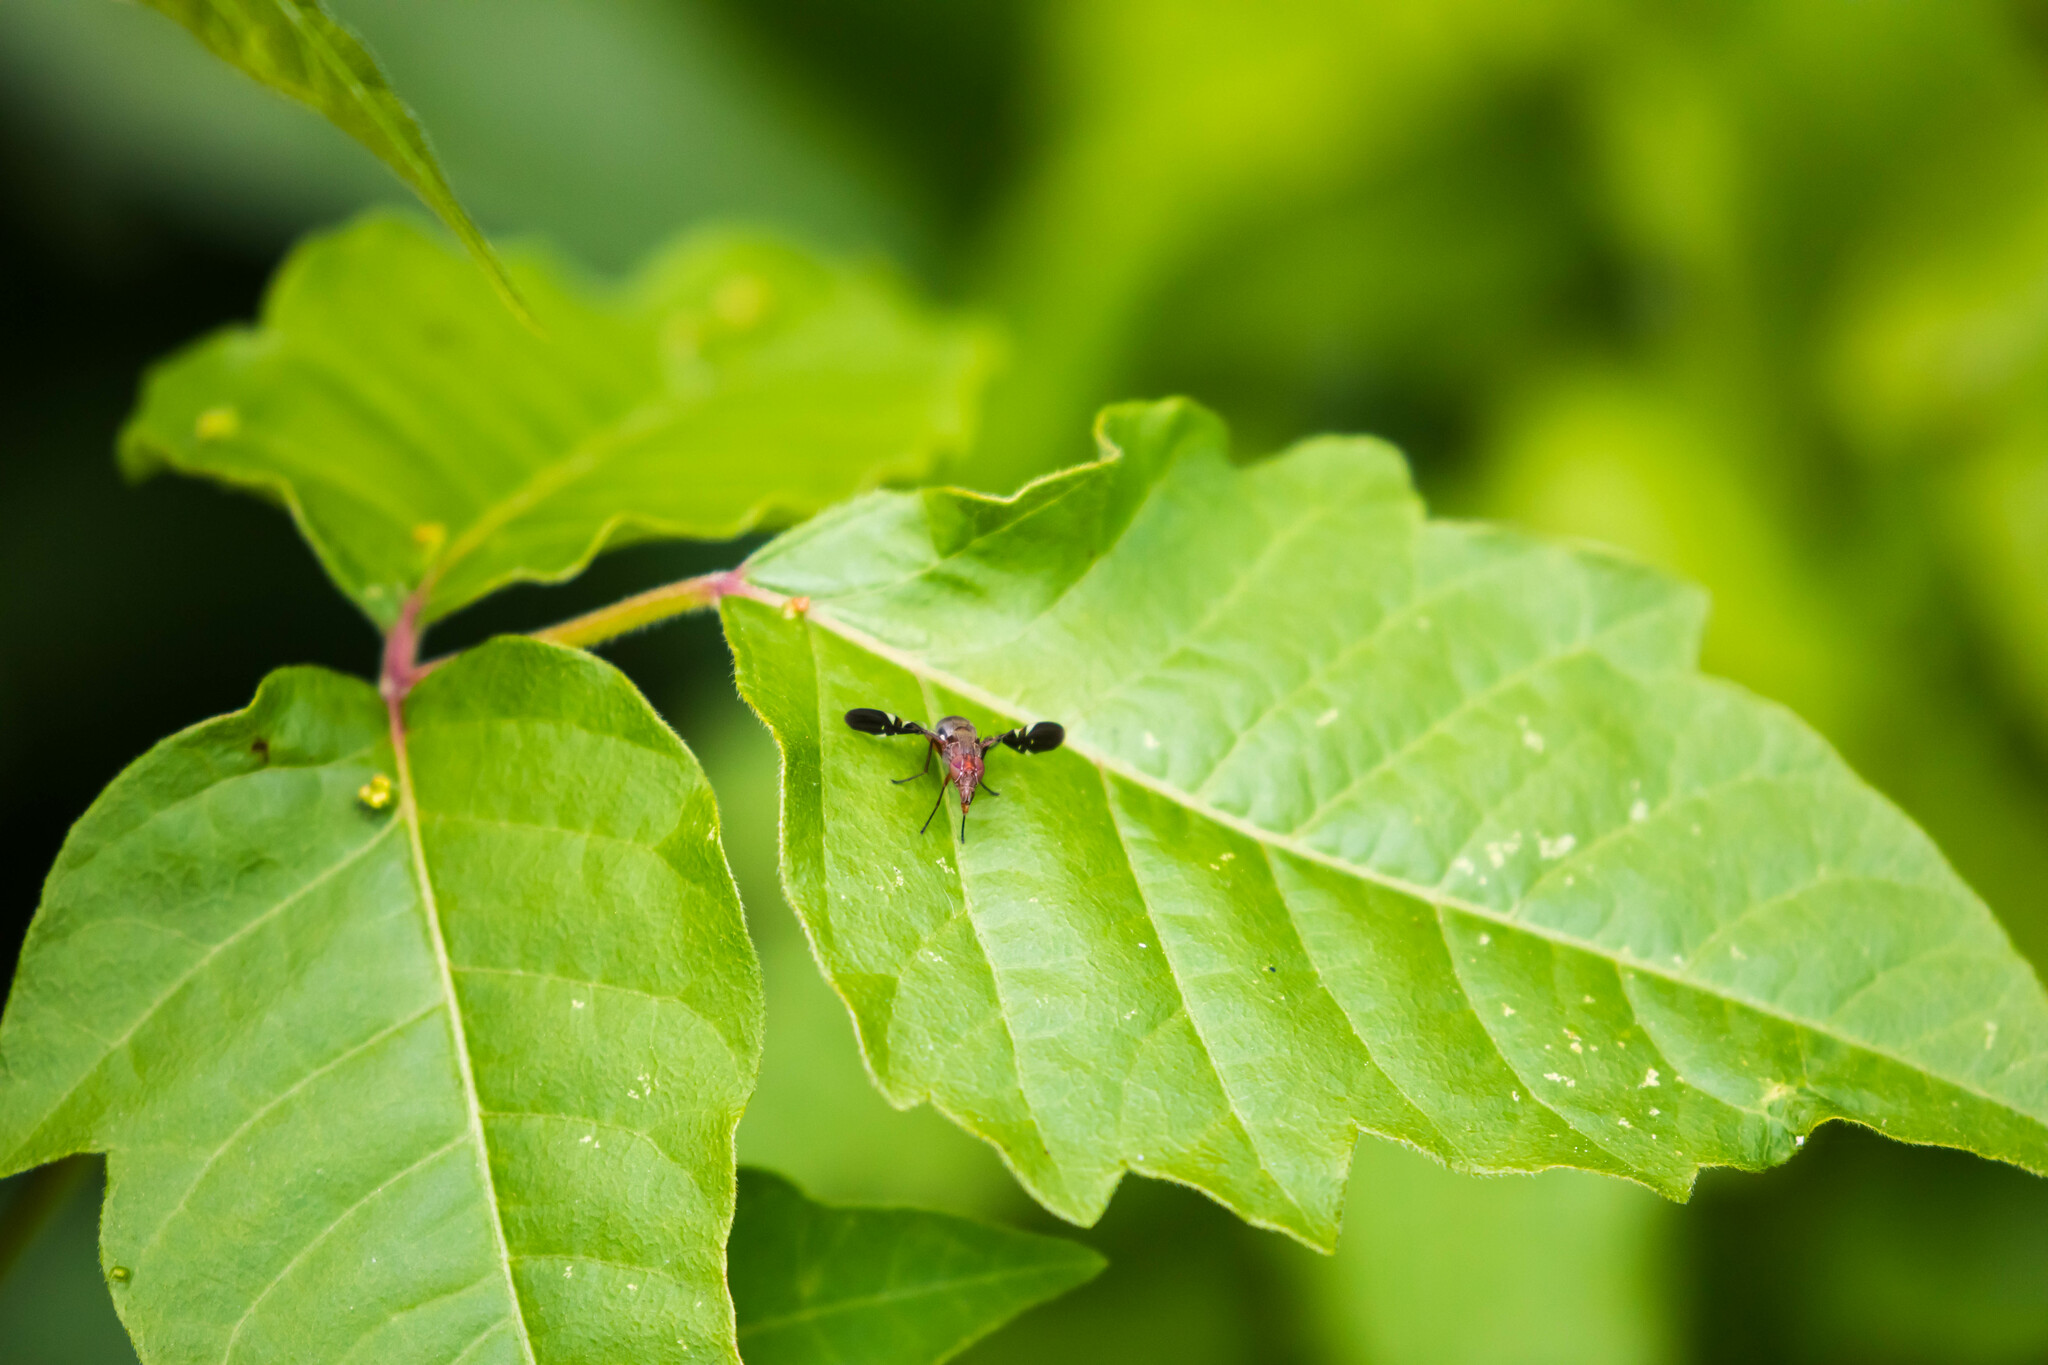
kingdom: Animalia
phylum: Arthropoda
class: Insecta
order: Diptera
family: Ulidiidae
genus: Delphinia
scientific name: Delphinia picta
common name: Common picture-winged fly
